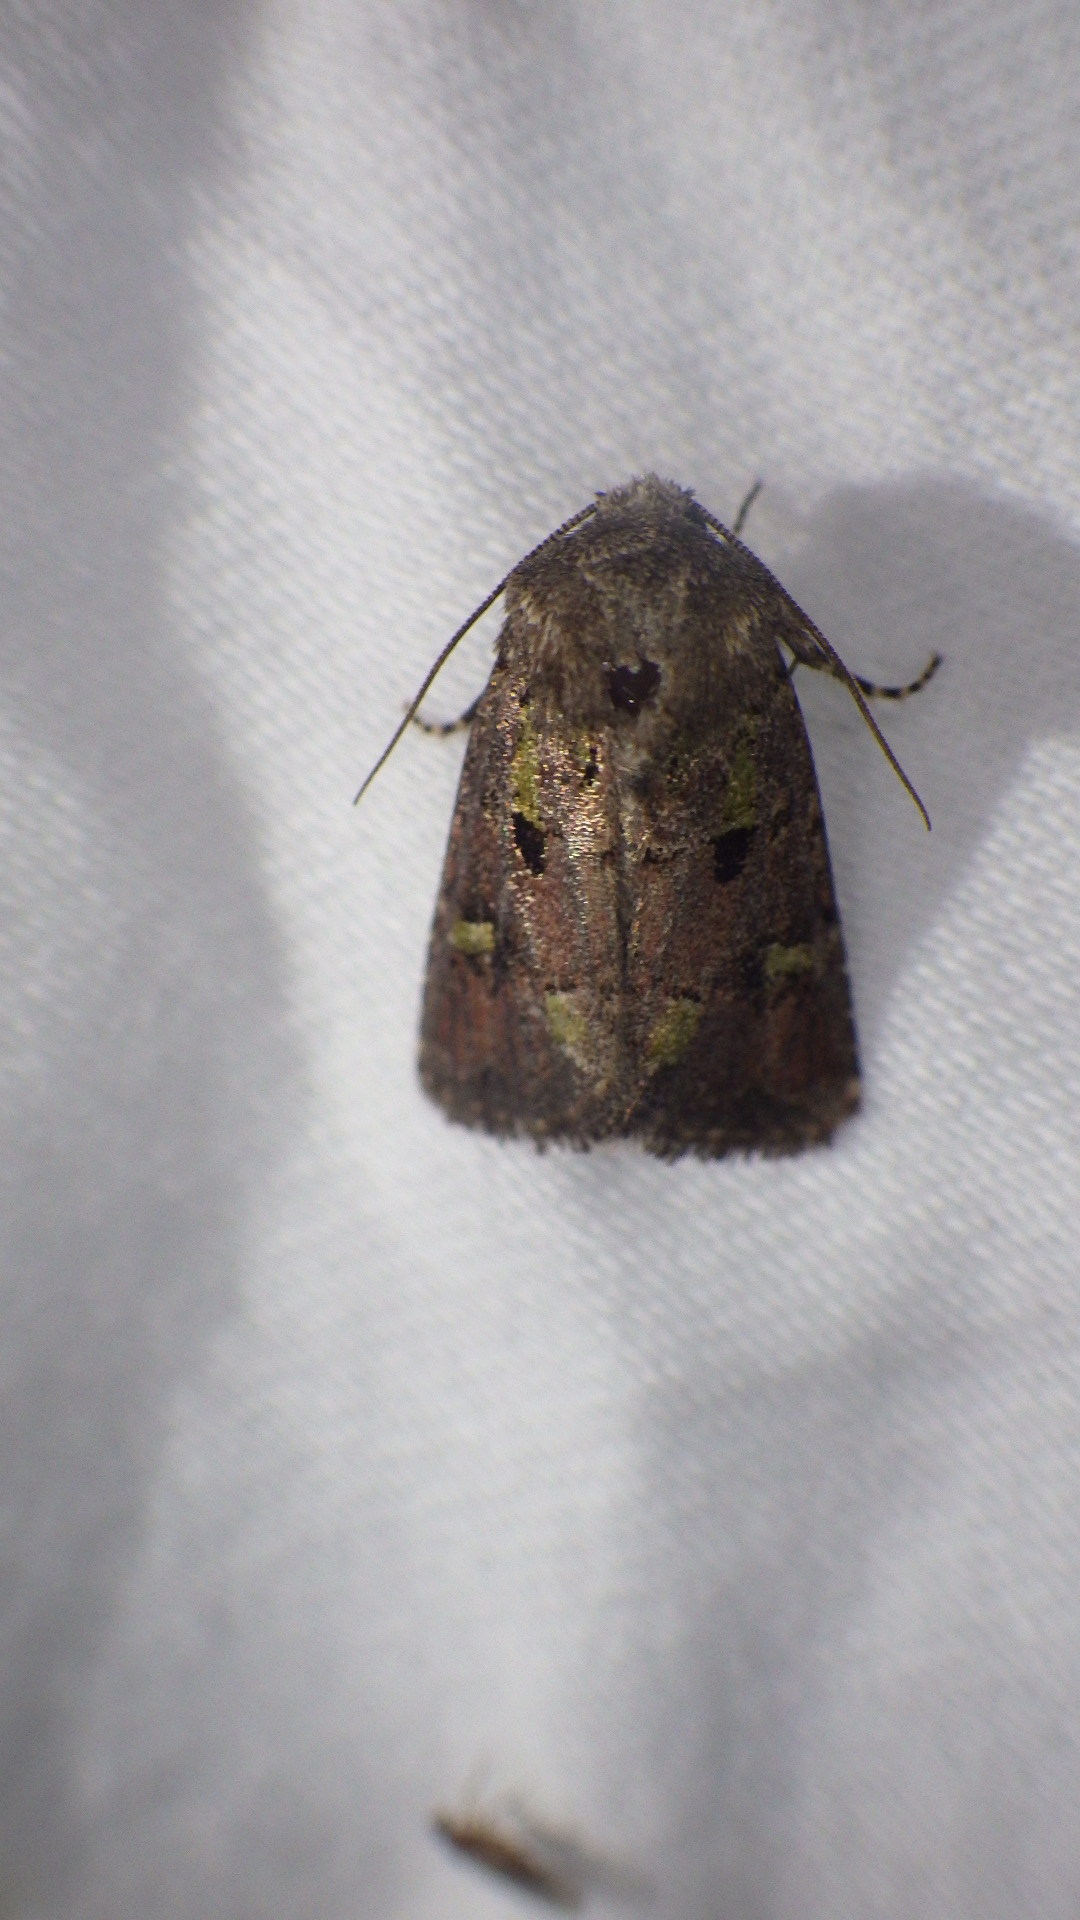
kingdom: Animalia
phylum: Arthropoda
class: Insecta
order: Lepidoptera
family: Noctuidae
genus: Lacinipolia
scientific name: Lacinipolia renigera
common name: Kidney-spotted minor
